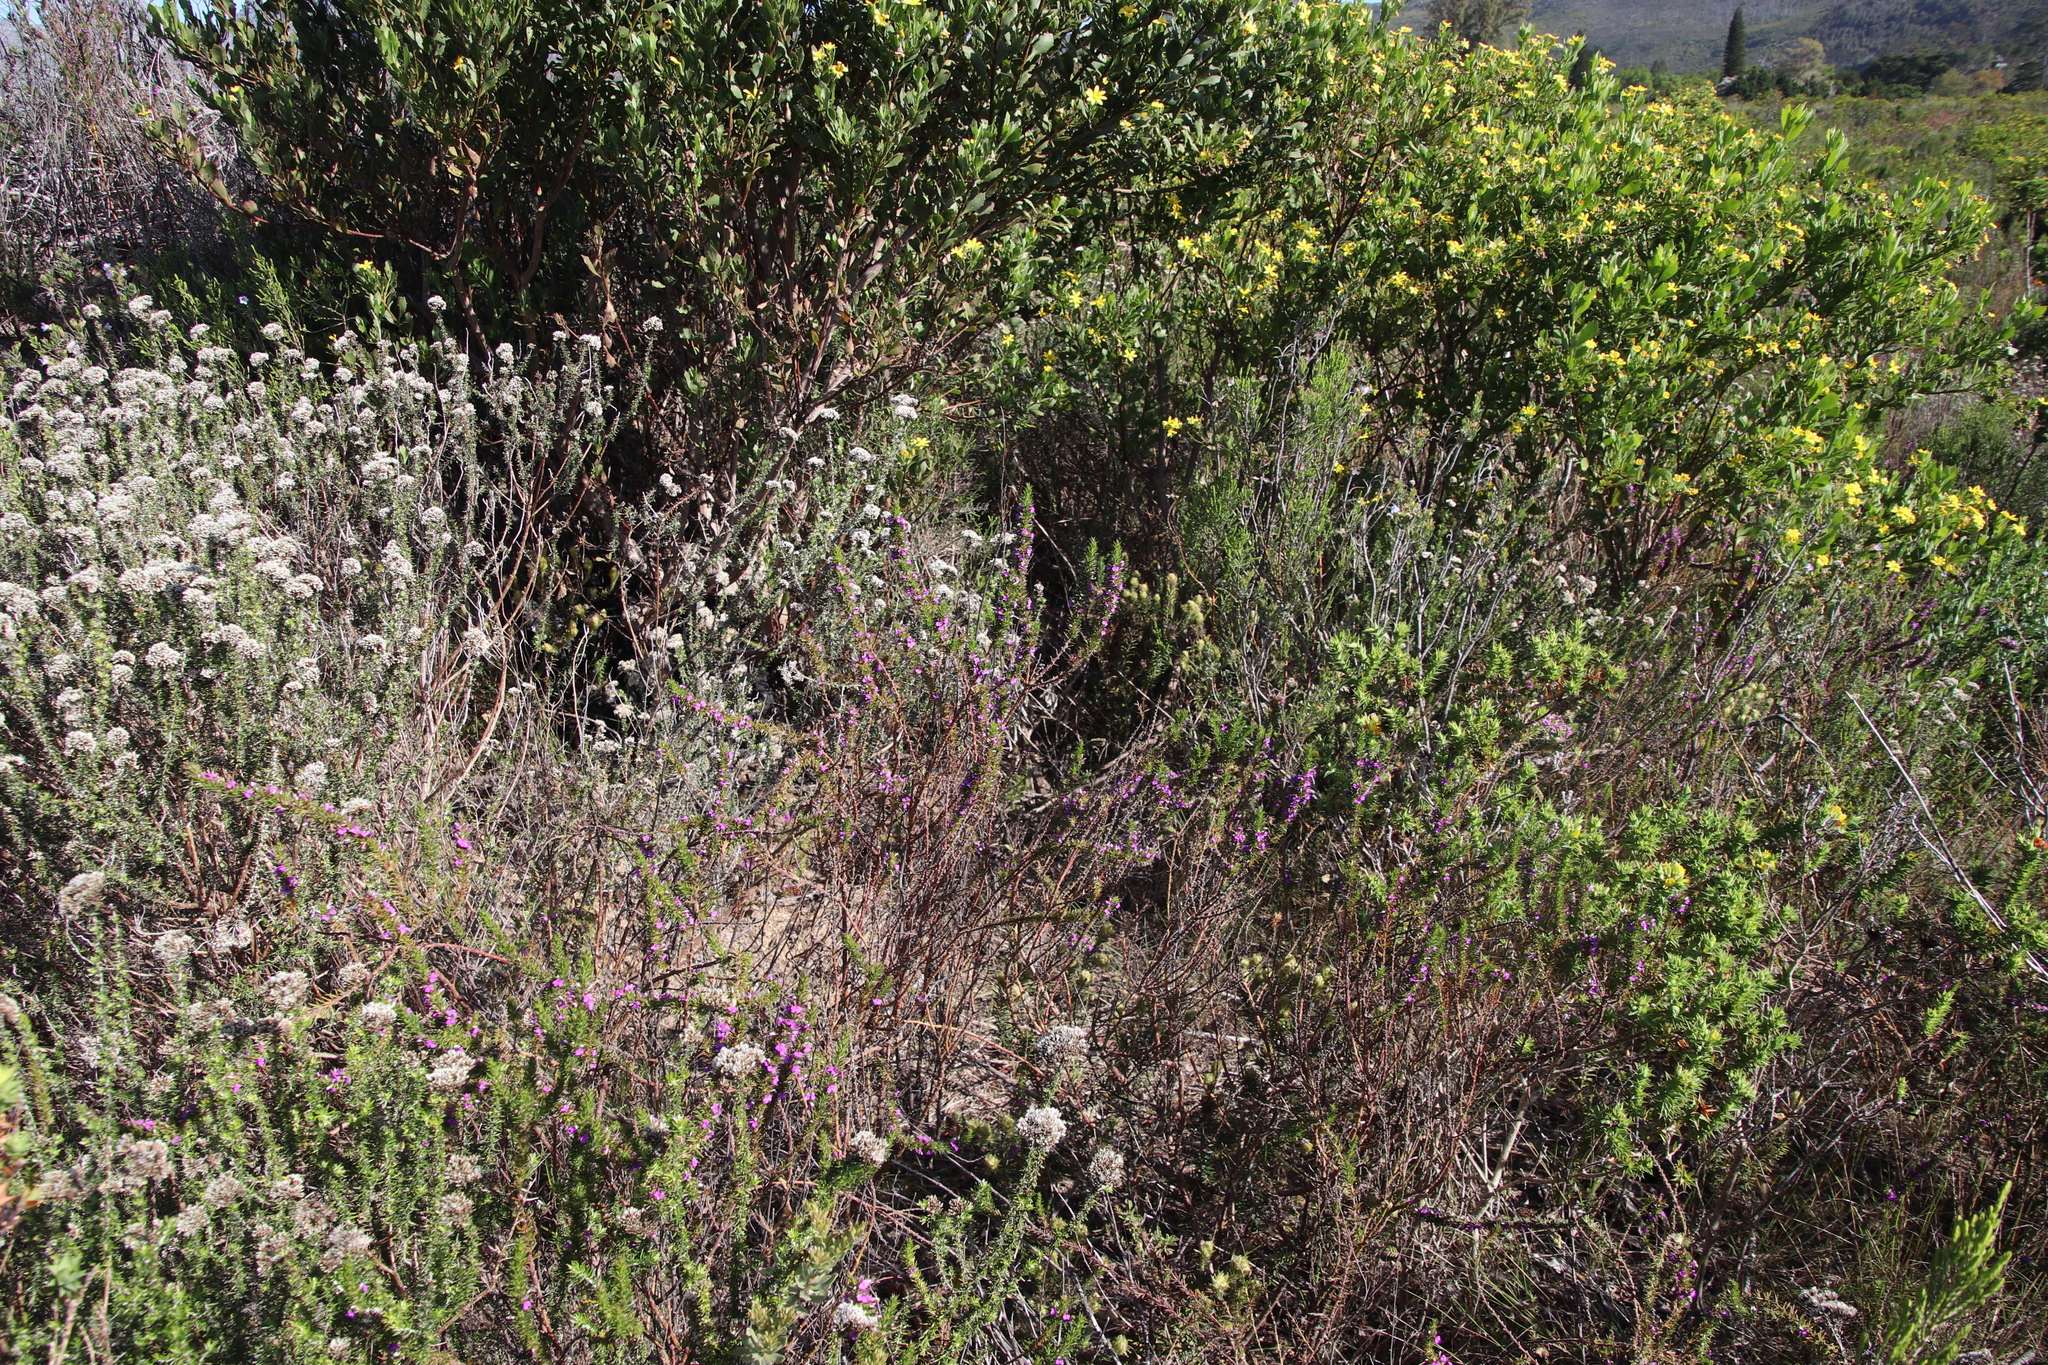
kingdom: Plantae
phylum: Tracheophyta
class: Magnoliopsida
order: Fabales
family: Polygalaceae
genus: Muraltia
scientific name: Muraltia heisteria
